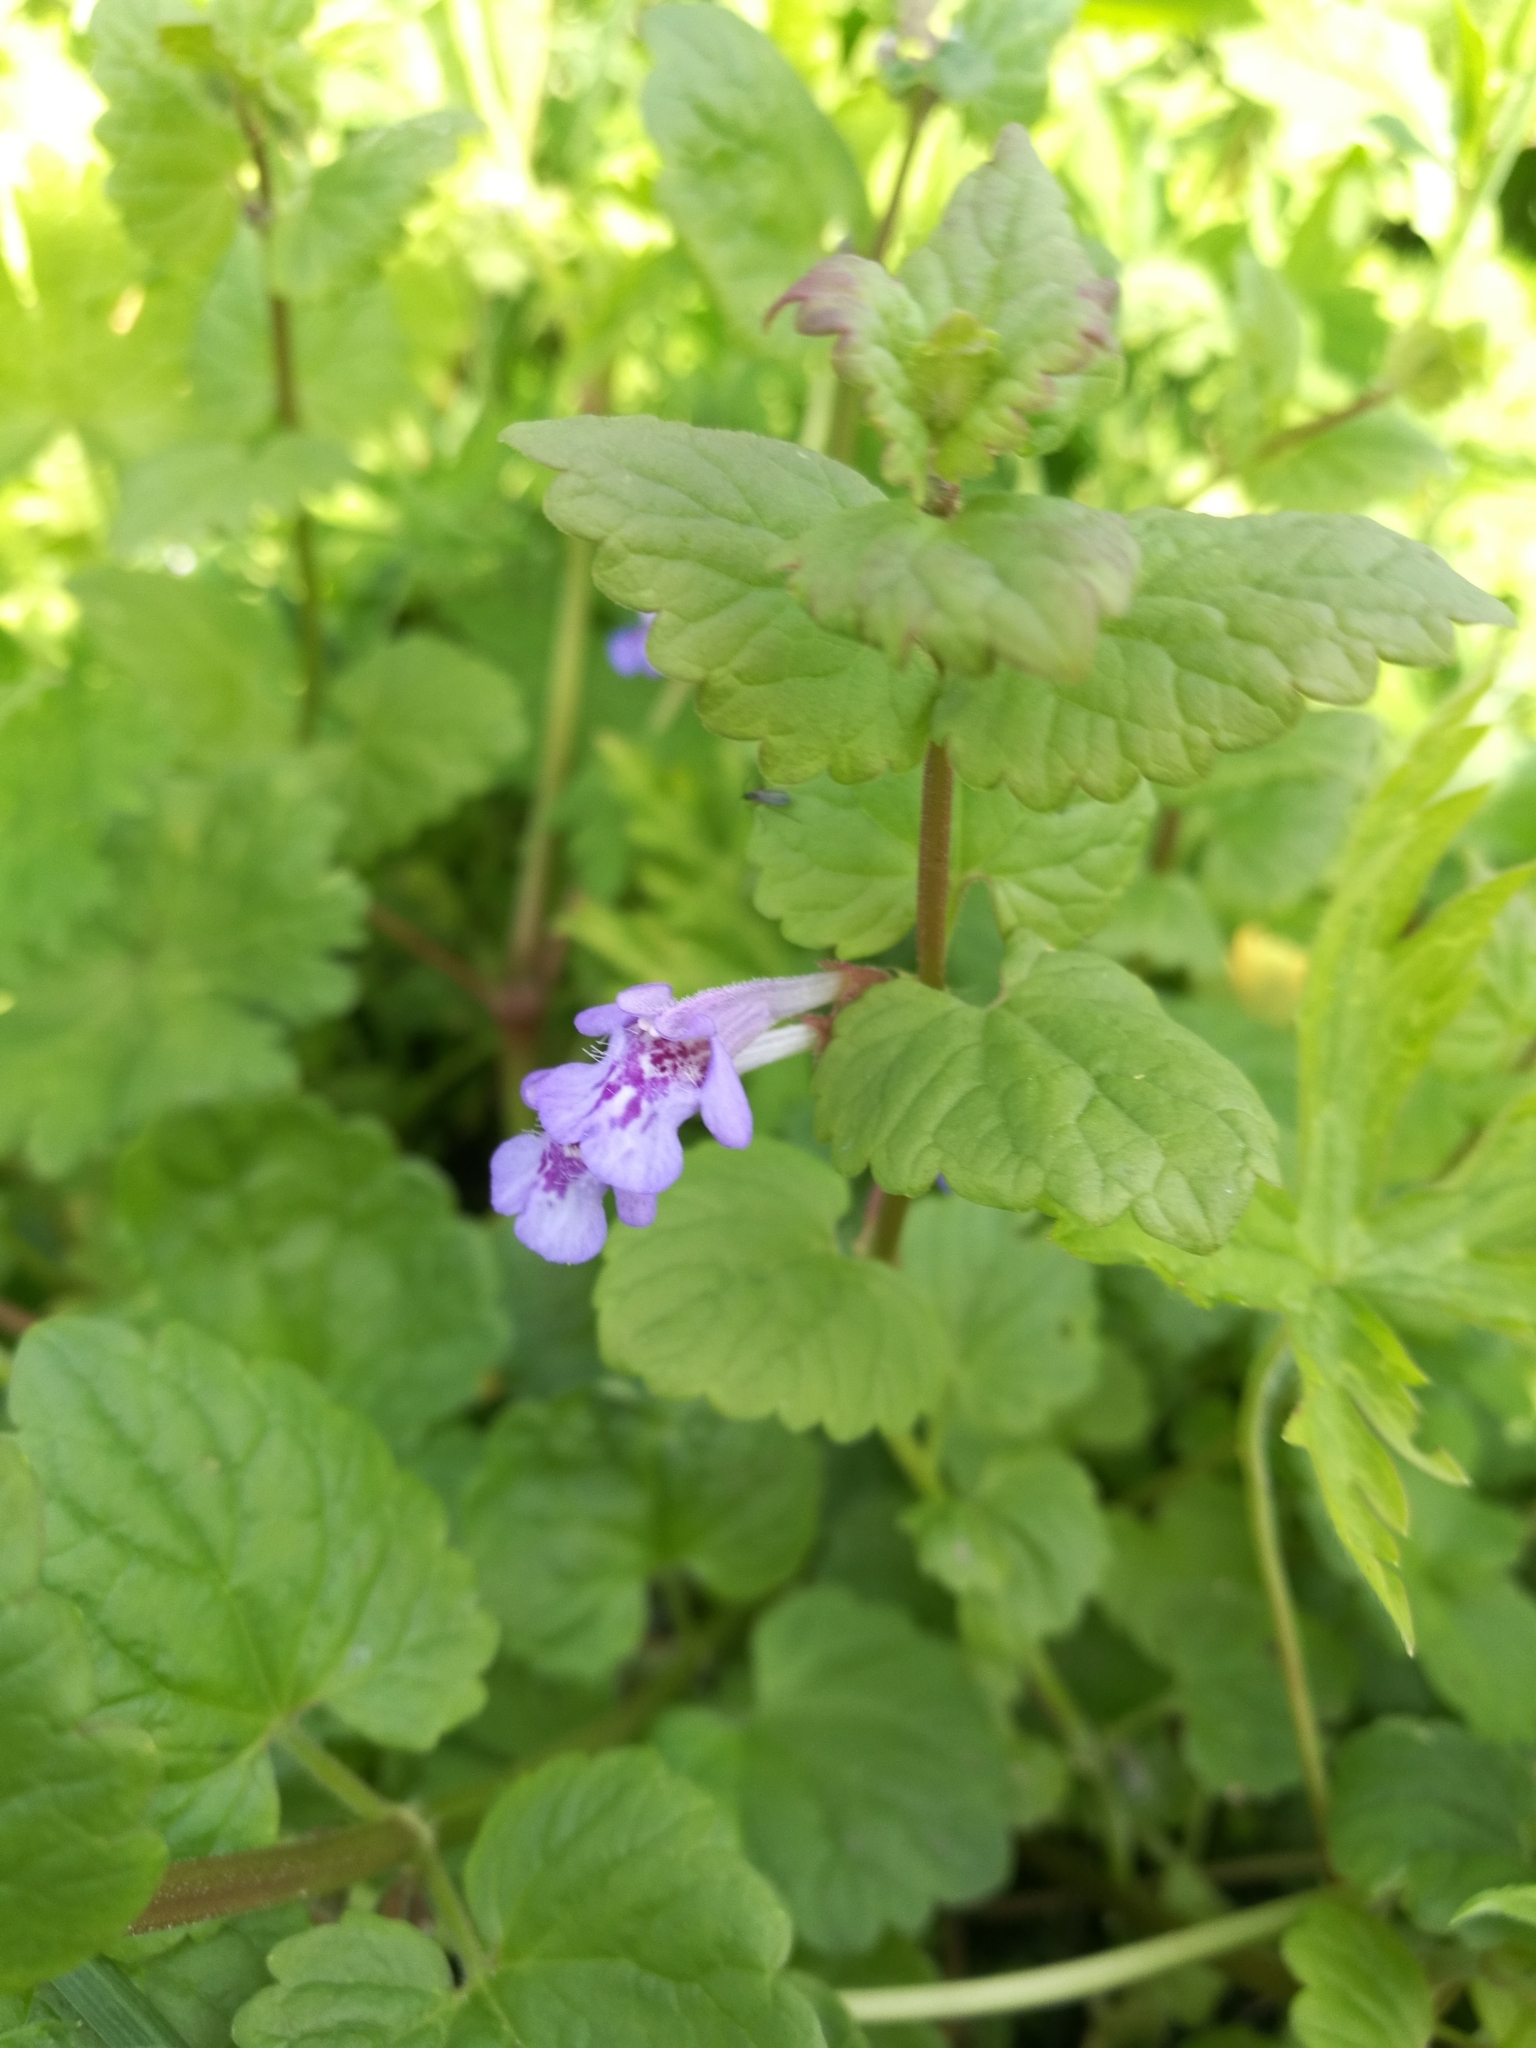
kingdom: Plantae
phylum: Tracheophyta
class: Magnoliopsida
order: Lamiales
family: Lamiaceae
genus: Glechoma
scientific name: Glechoma hederacea
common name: Ground ivy
